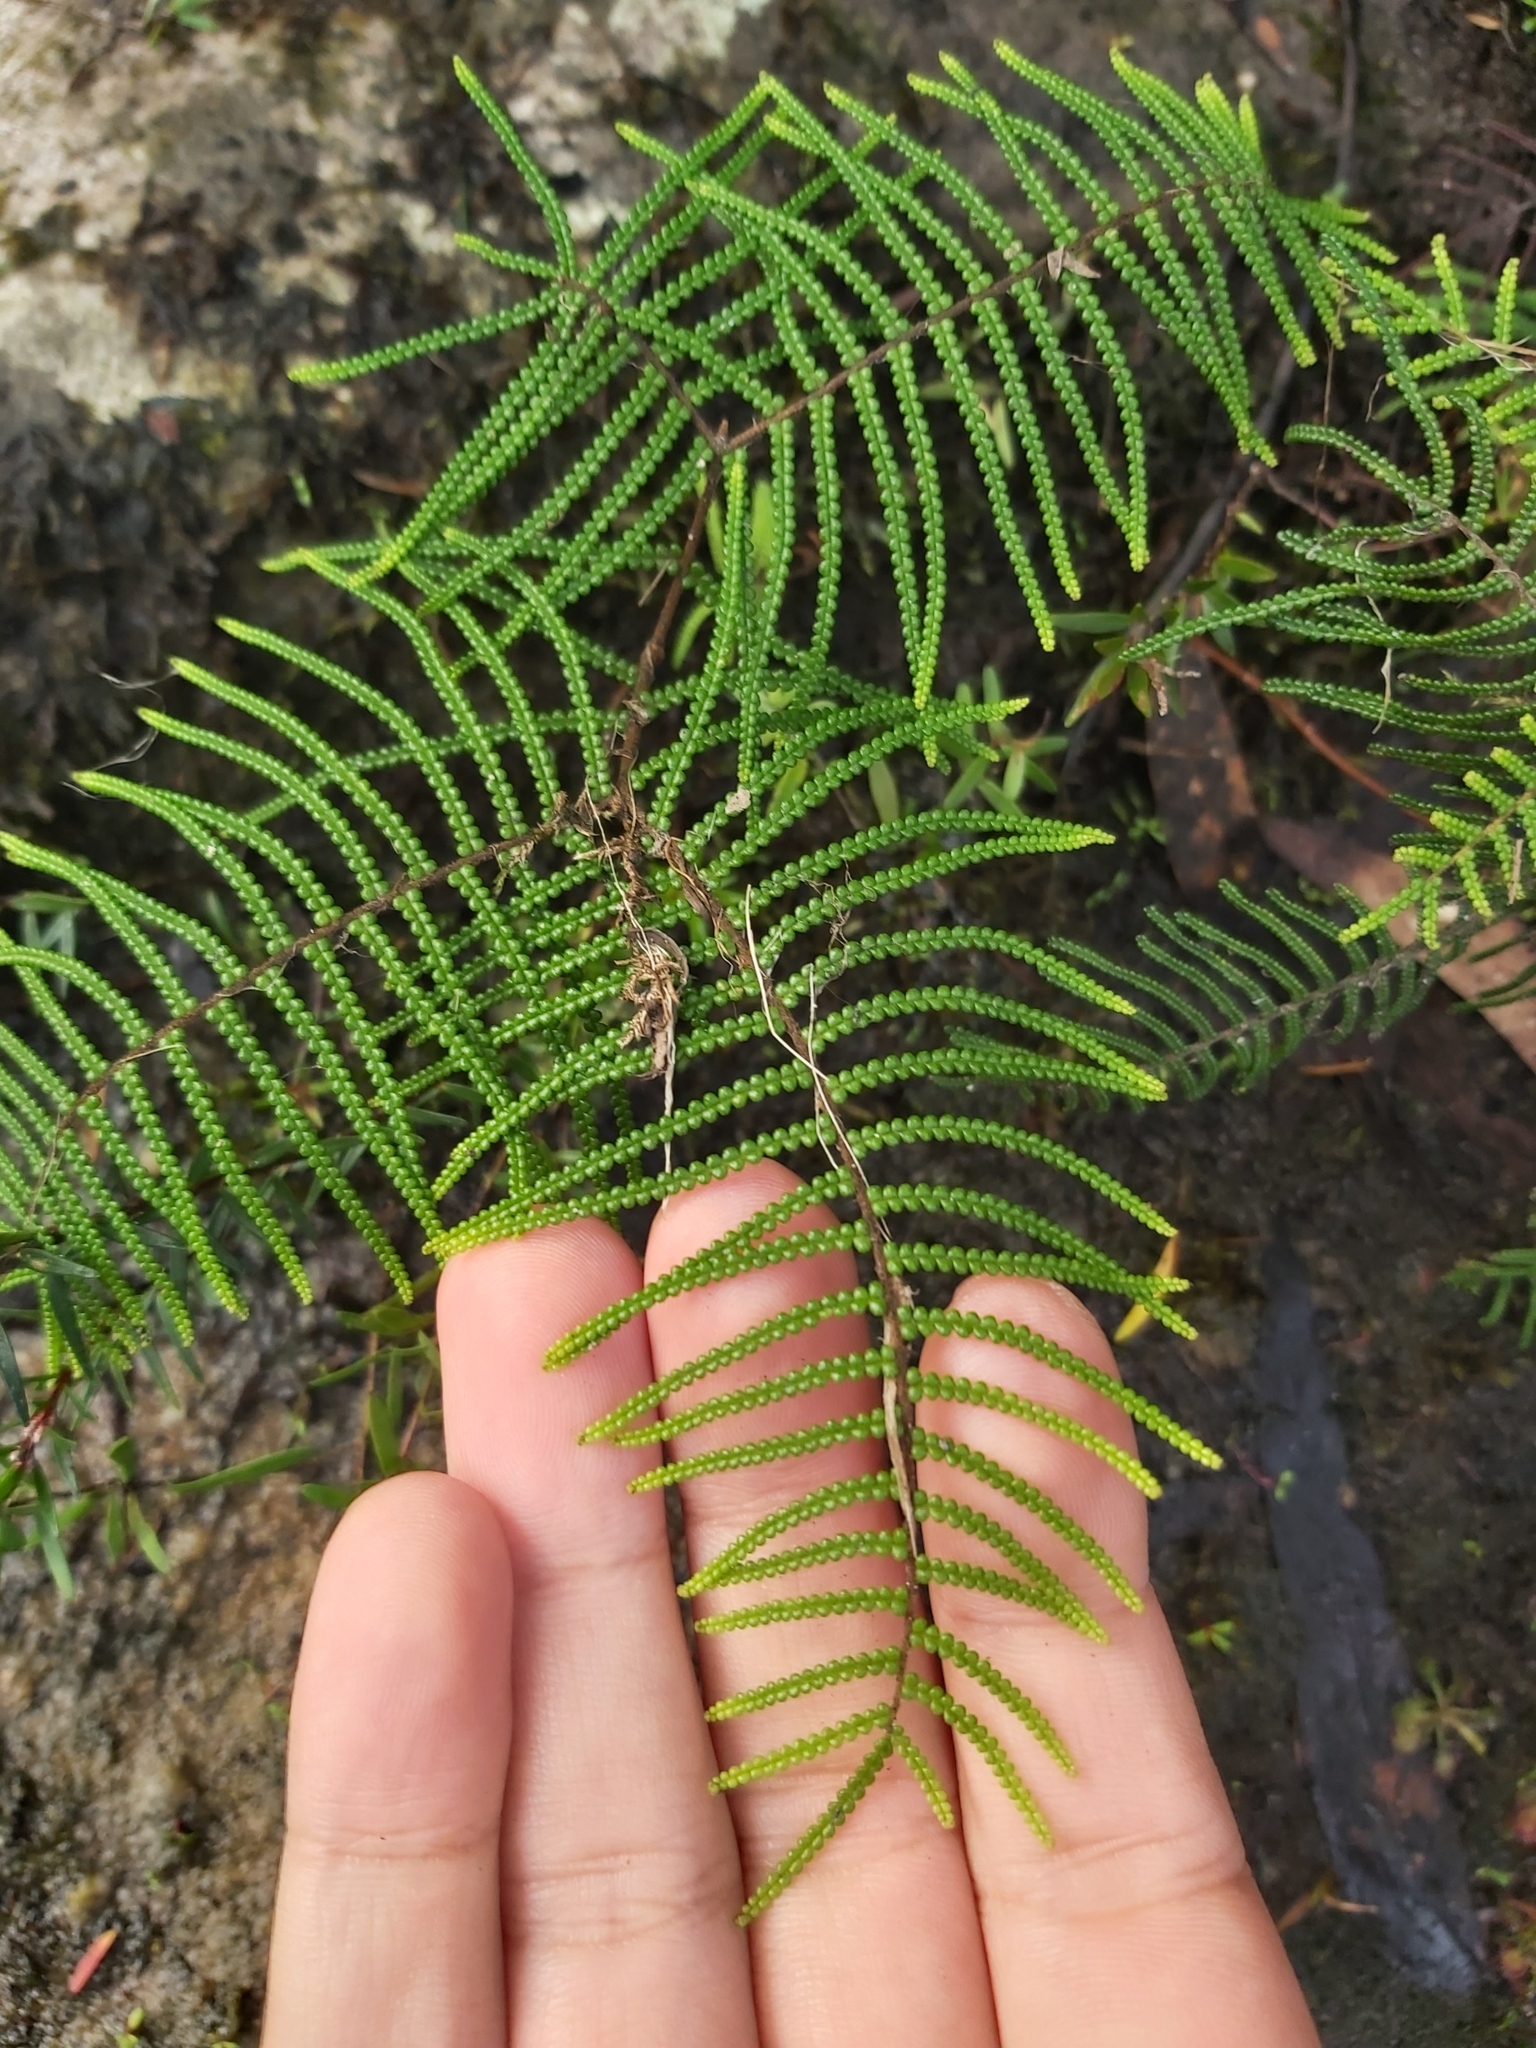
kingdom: Plantae
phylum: Tracheophyta
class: Polypodiopsida
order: Gleicheniales
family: Gleicheniaceae
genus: Gleichenia
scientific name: Gleichenia dicarpa
